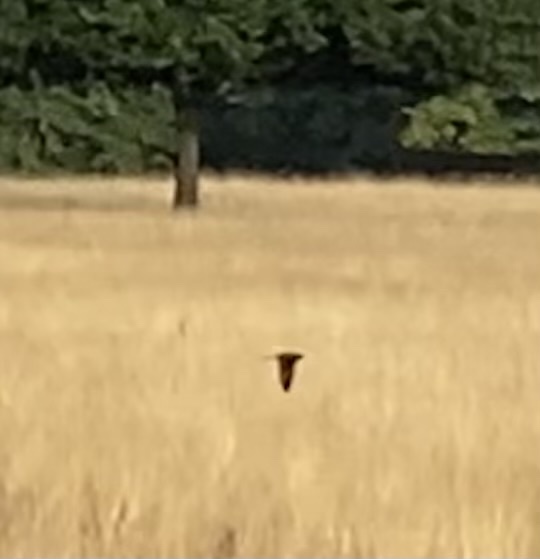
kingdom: Animalia
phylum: Chordata
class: Aves
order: Passeriformes
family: Hirundinidae
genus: Hirundo
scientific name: Hirundo rustica
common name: Barn swallow
